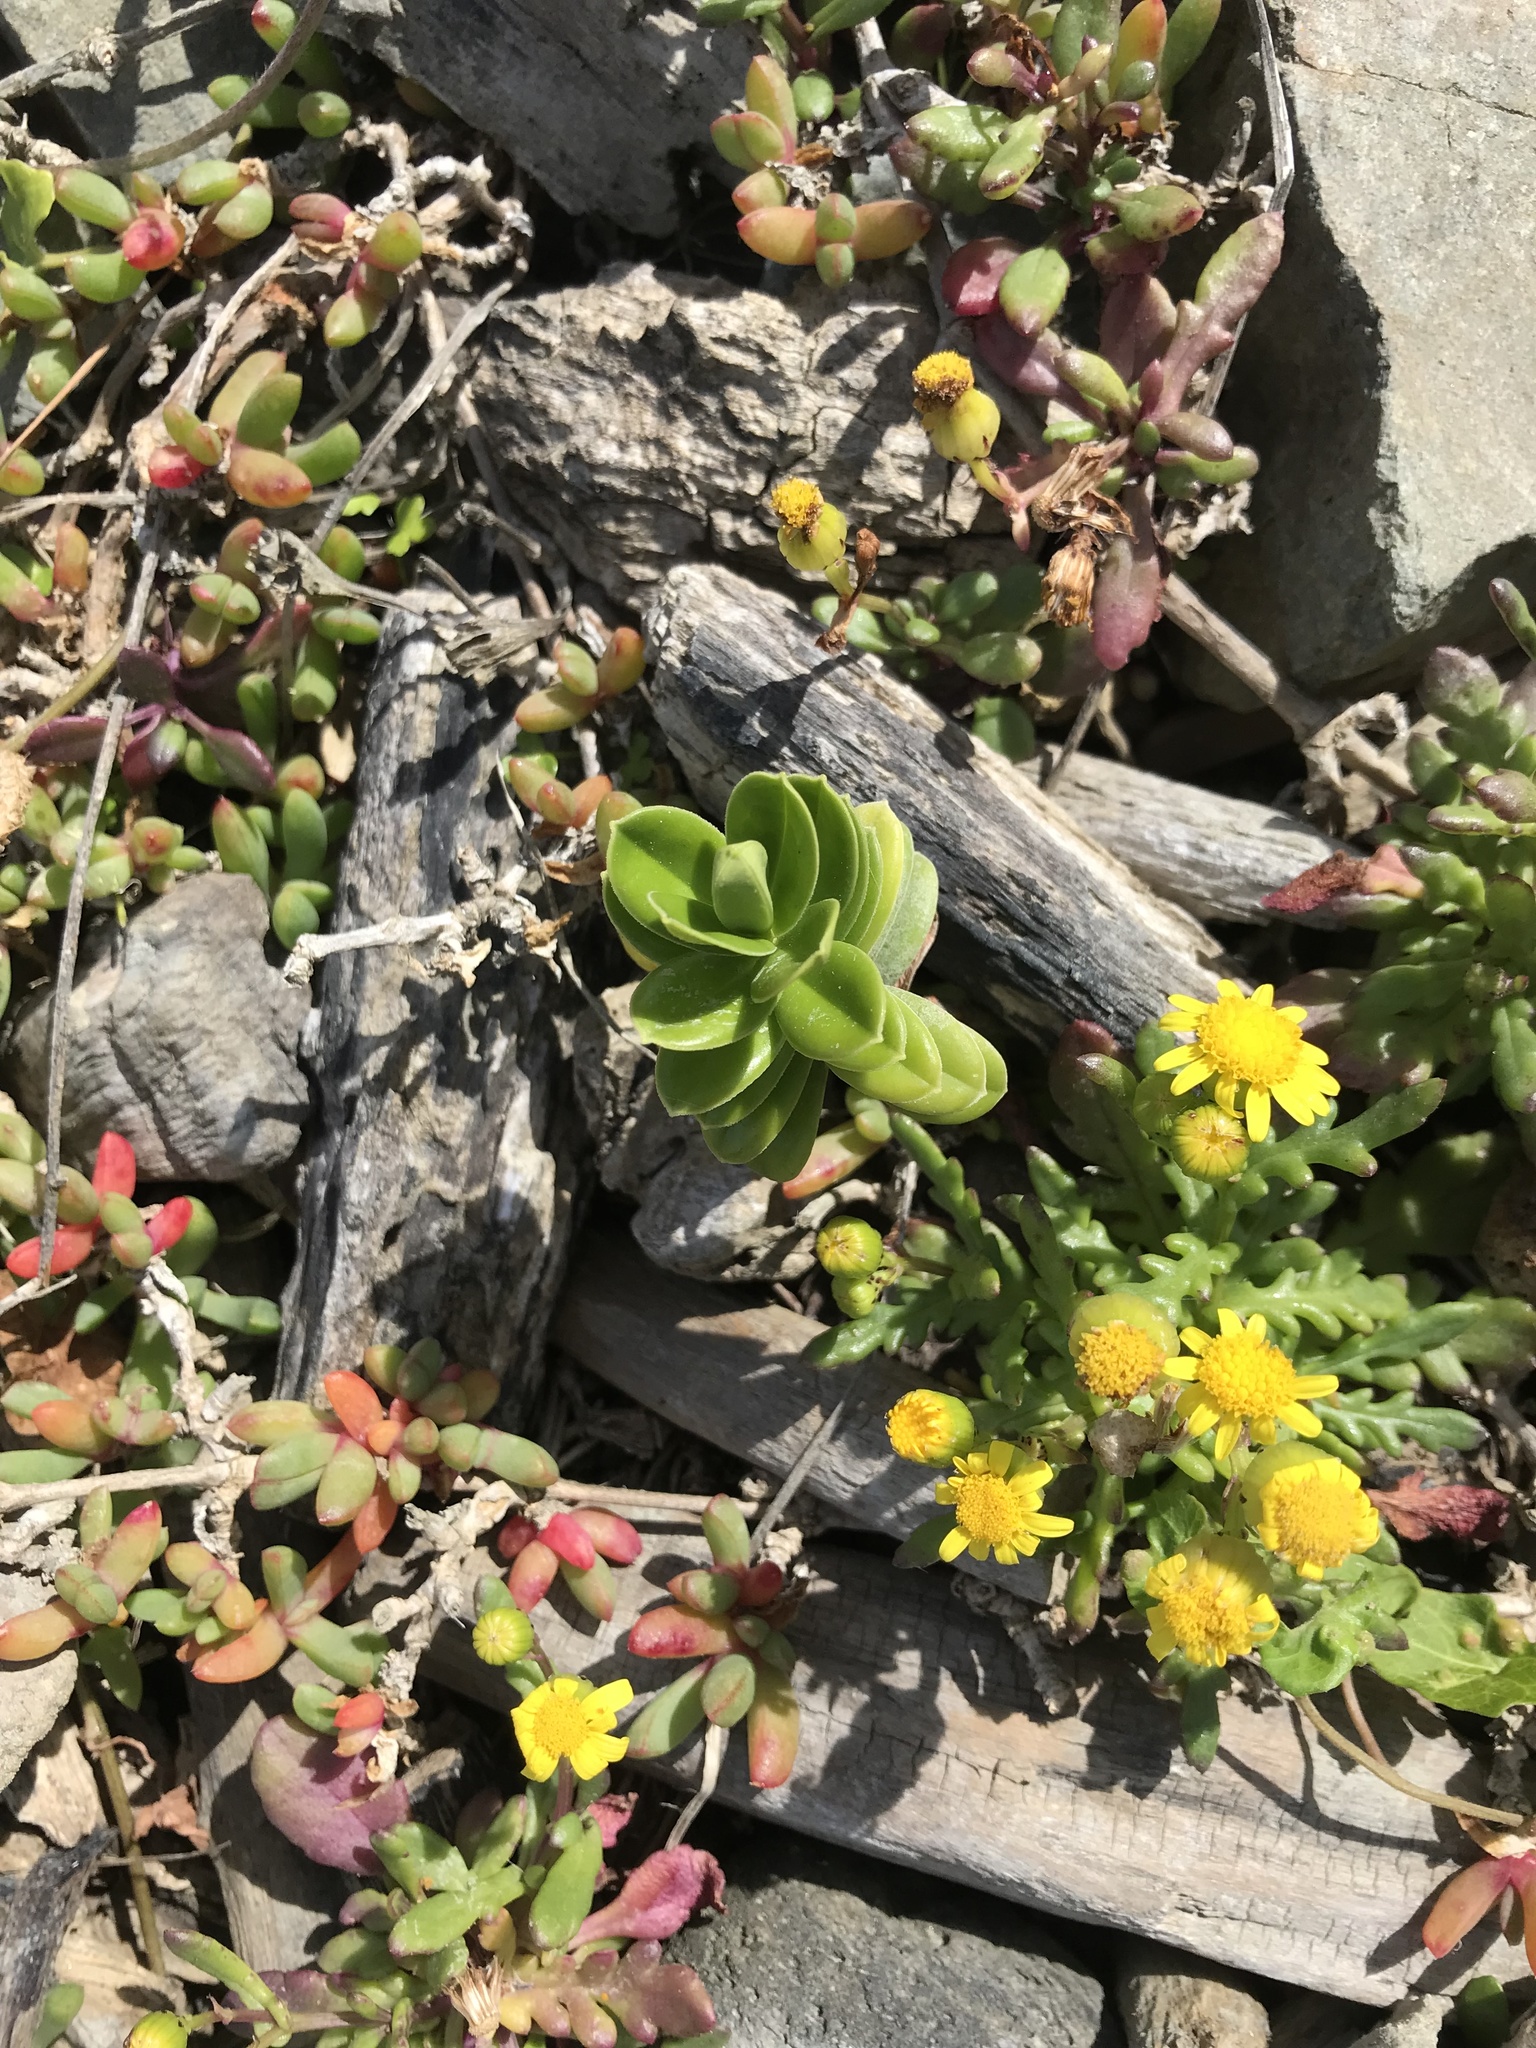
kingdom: Plantae
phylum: Tracheophyta
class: Magnoliopsida
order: Lamiales
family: Plantaginaceae
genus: Veronica
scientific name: Veronica elliptica
